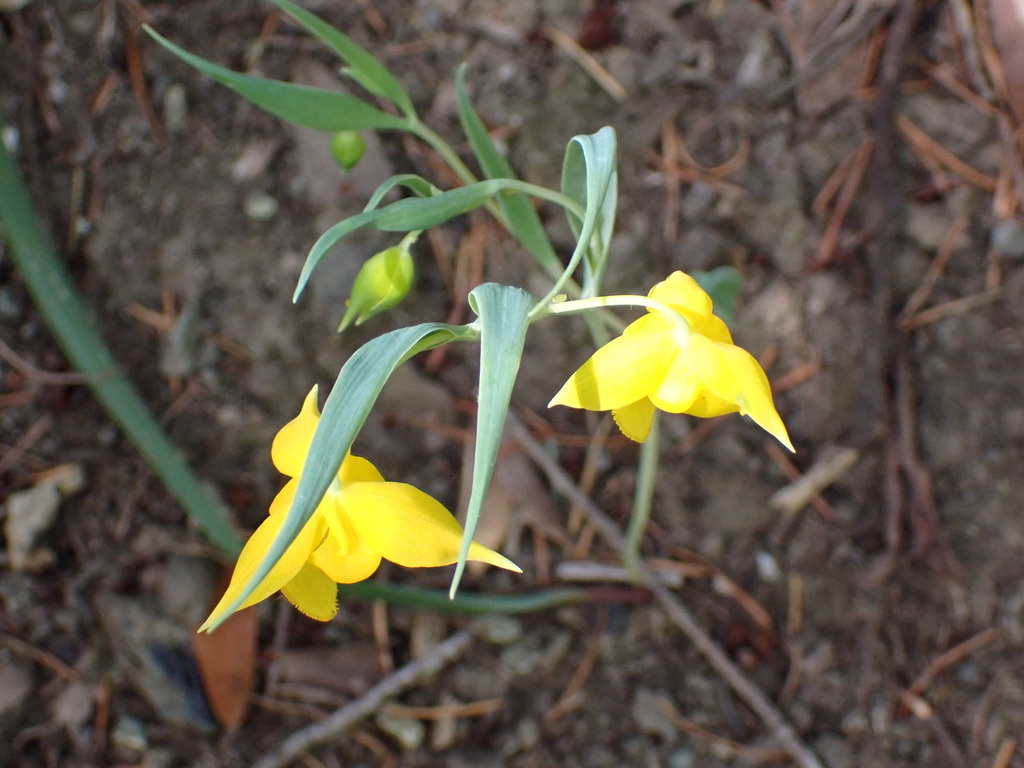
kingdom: Plantae
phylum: Tracheophyta
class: Liliopsida
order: Liliales
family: Liliaceae
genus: Calochortus
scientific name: Calochortus amabilis
